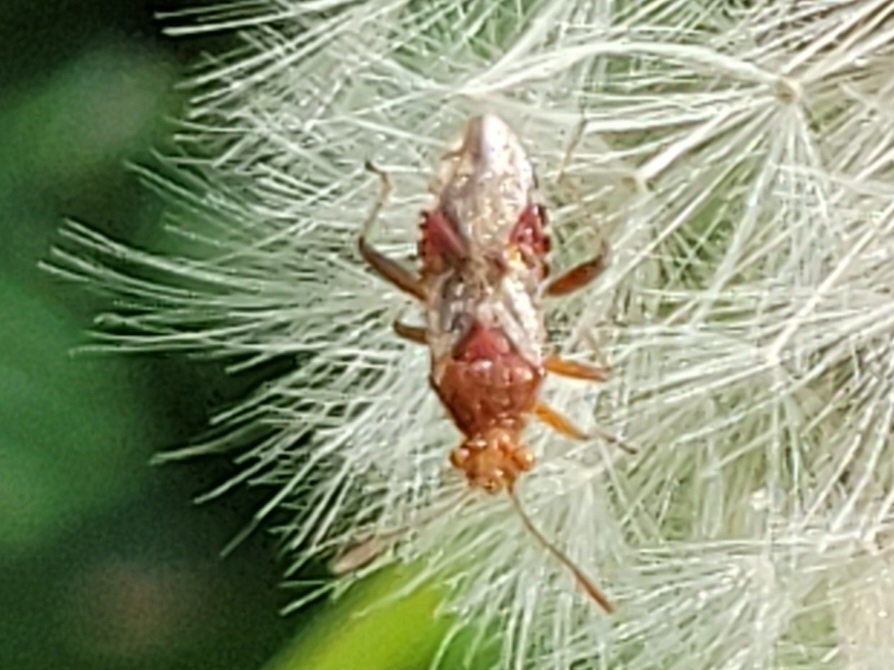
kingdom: Animalia
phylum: Arthropoda
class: Insecta
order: Hemiptera
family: Rhopalidae
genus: Rhopalus
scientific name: Rhopalus subrufus
